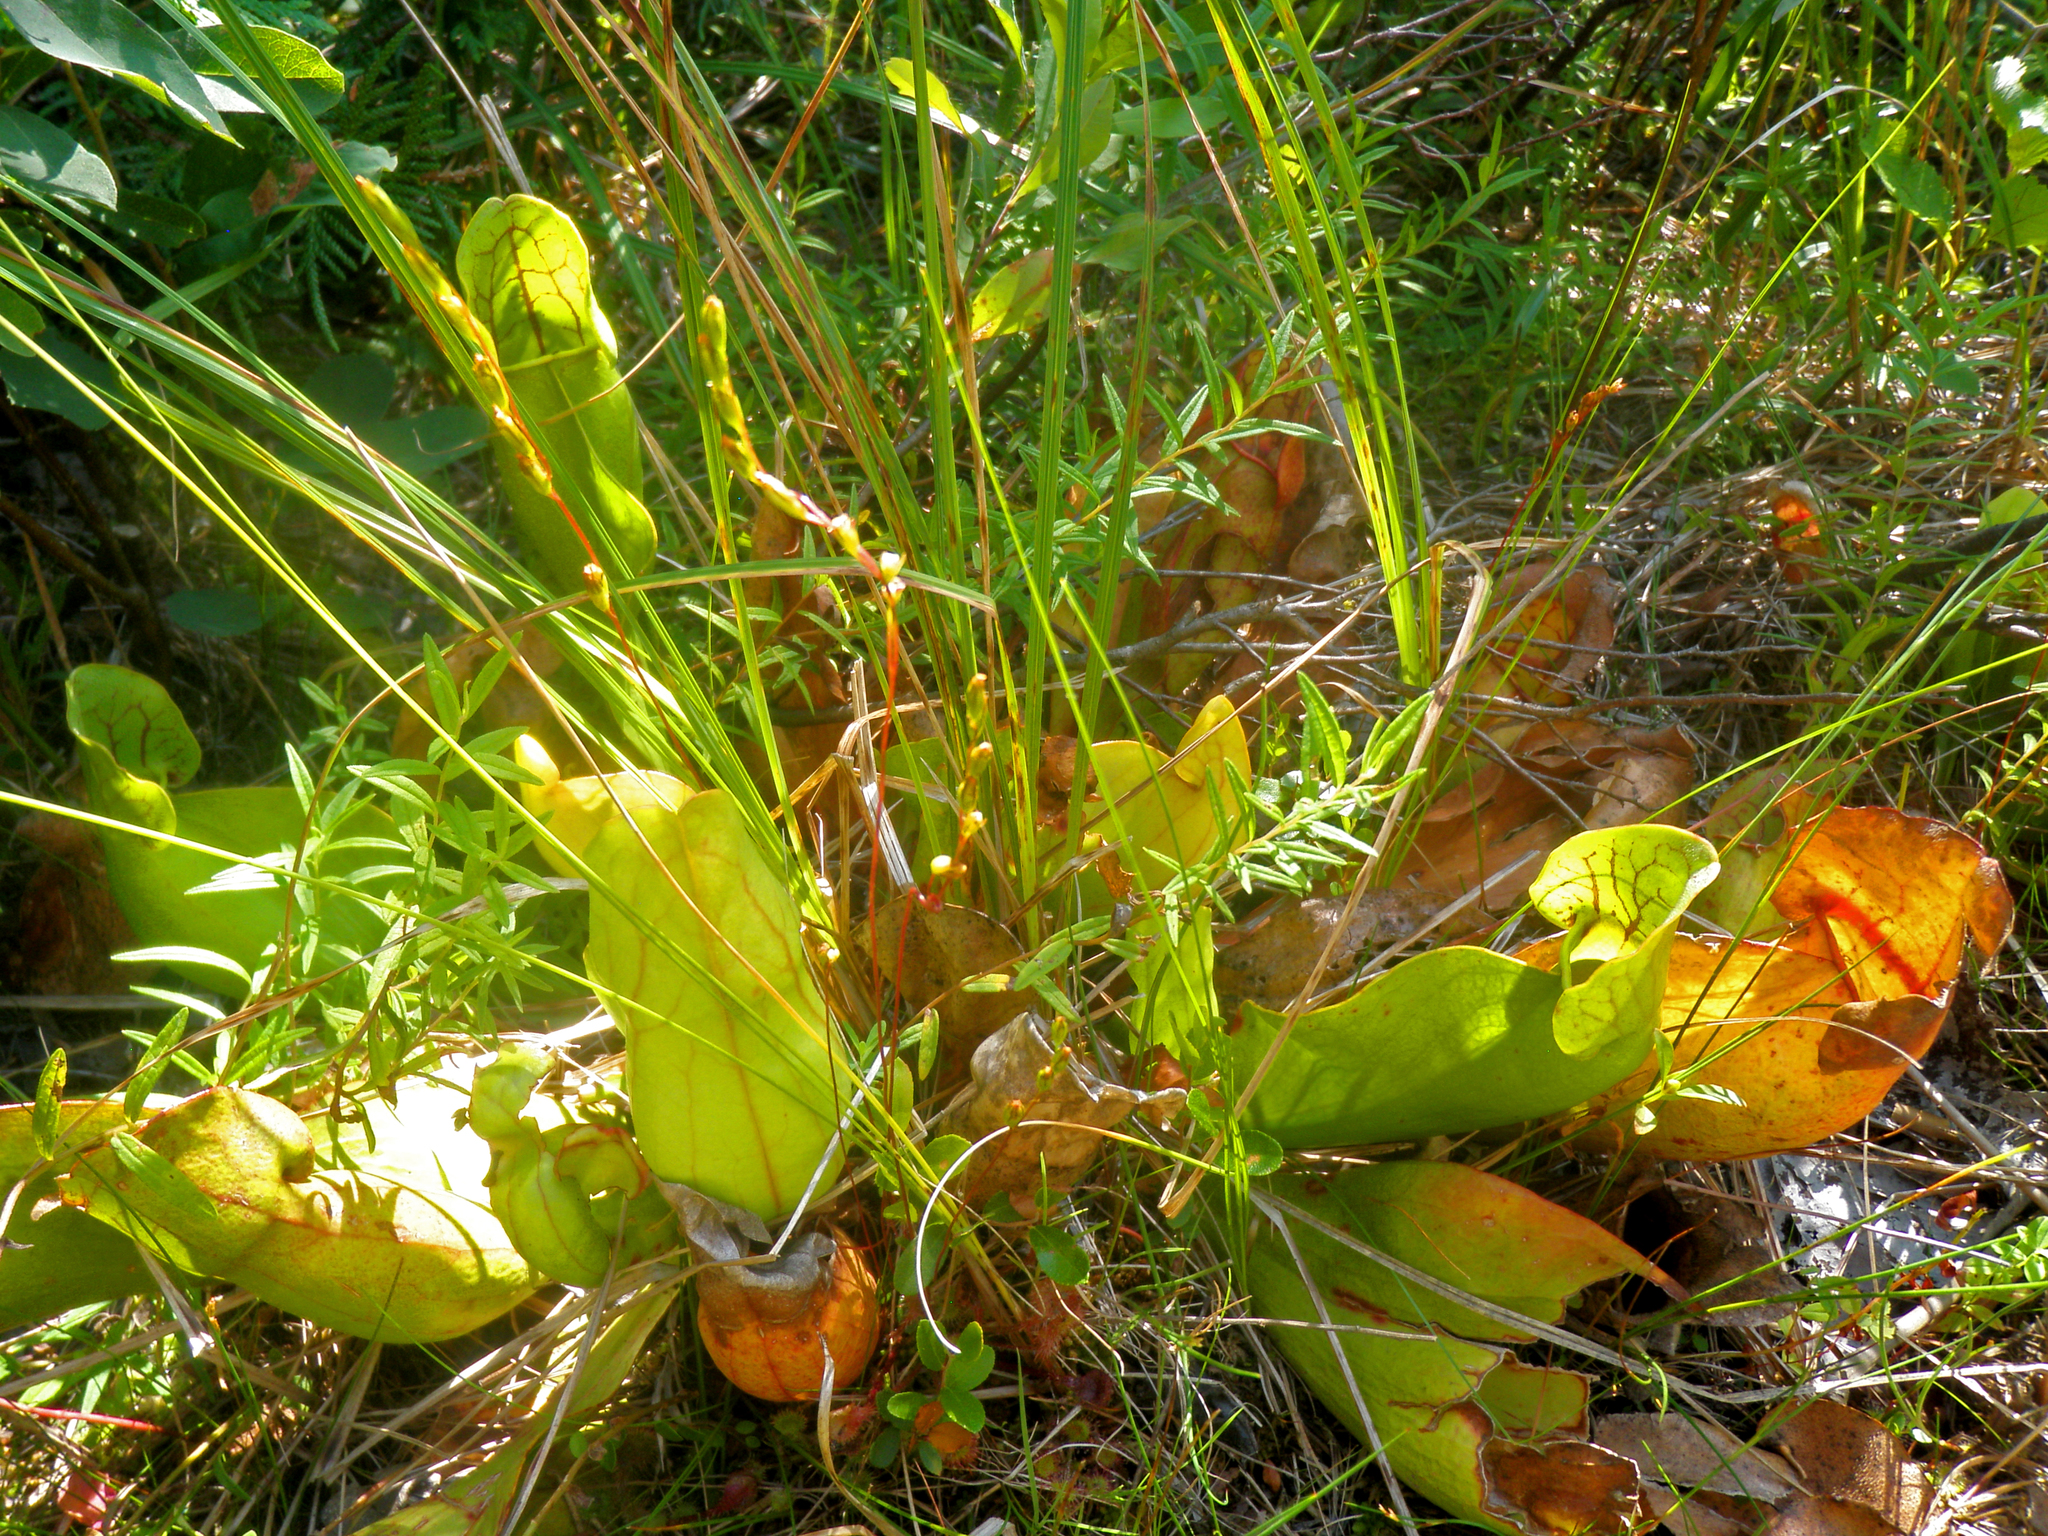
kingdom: Plantae
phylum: Tracheophyta
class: Magnoliopsida
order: Ericales
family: Sarraceniaceae
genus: Sarracenia
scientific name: Sarracenia purpurea
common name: Pitcherplant
